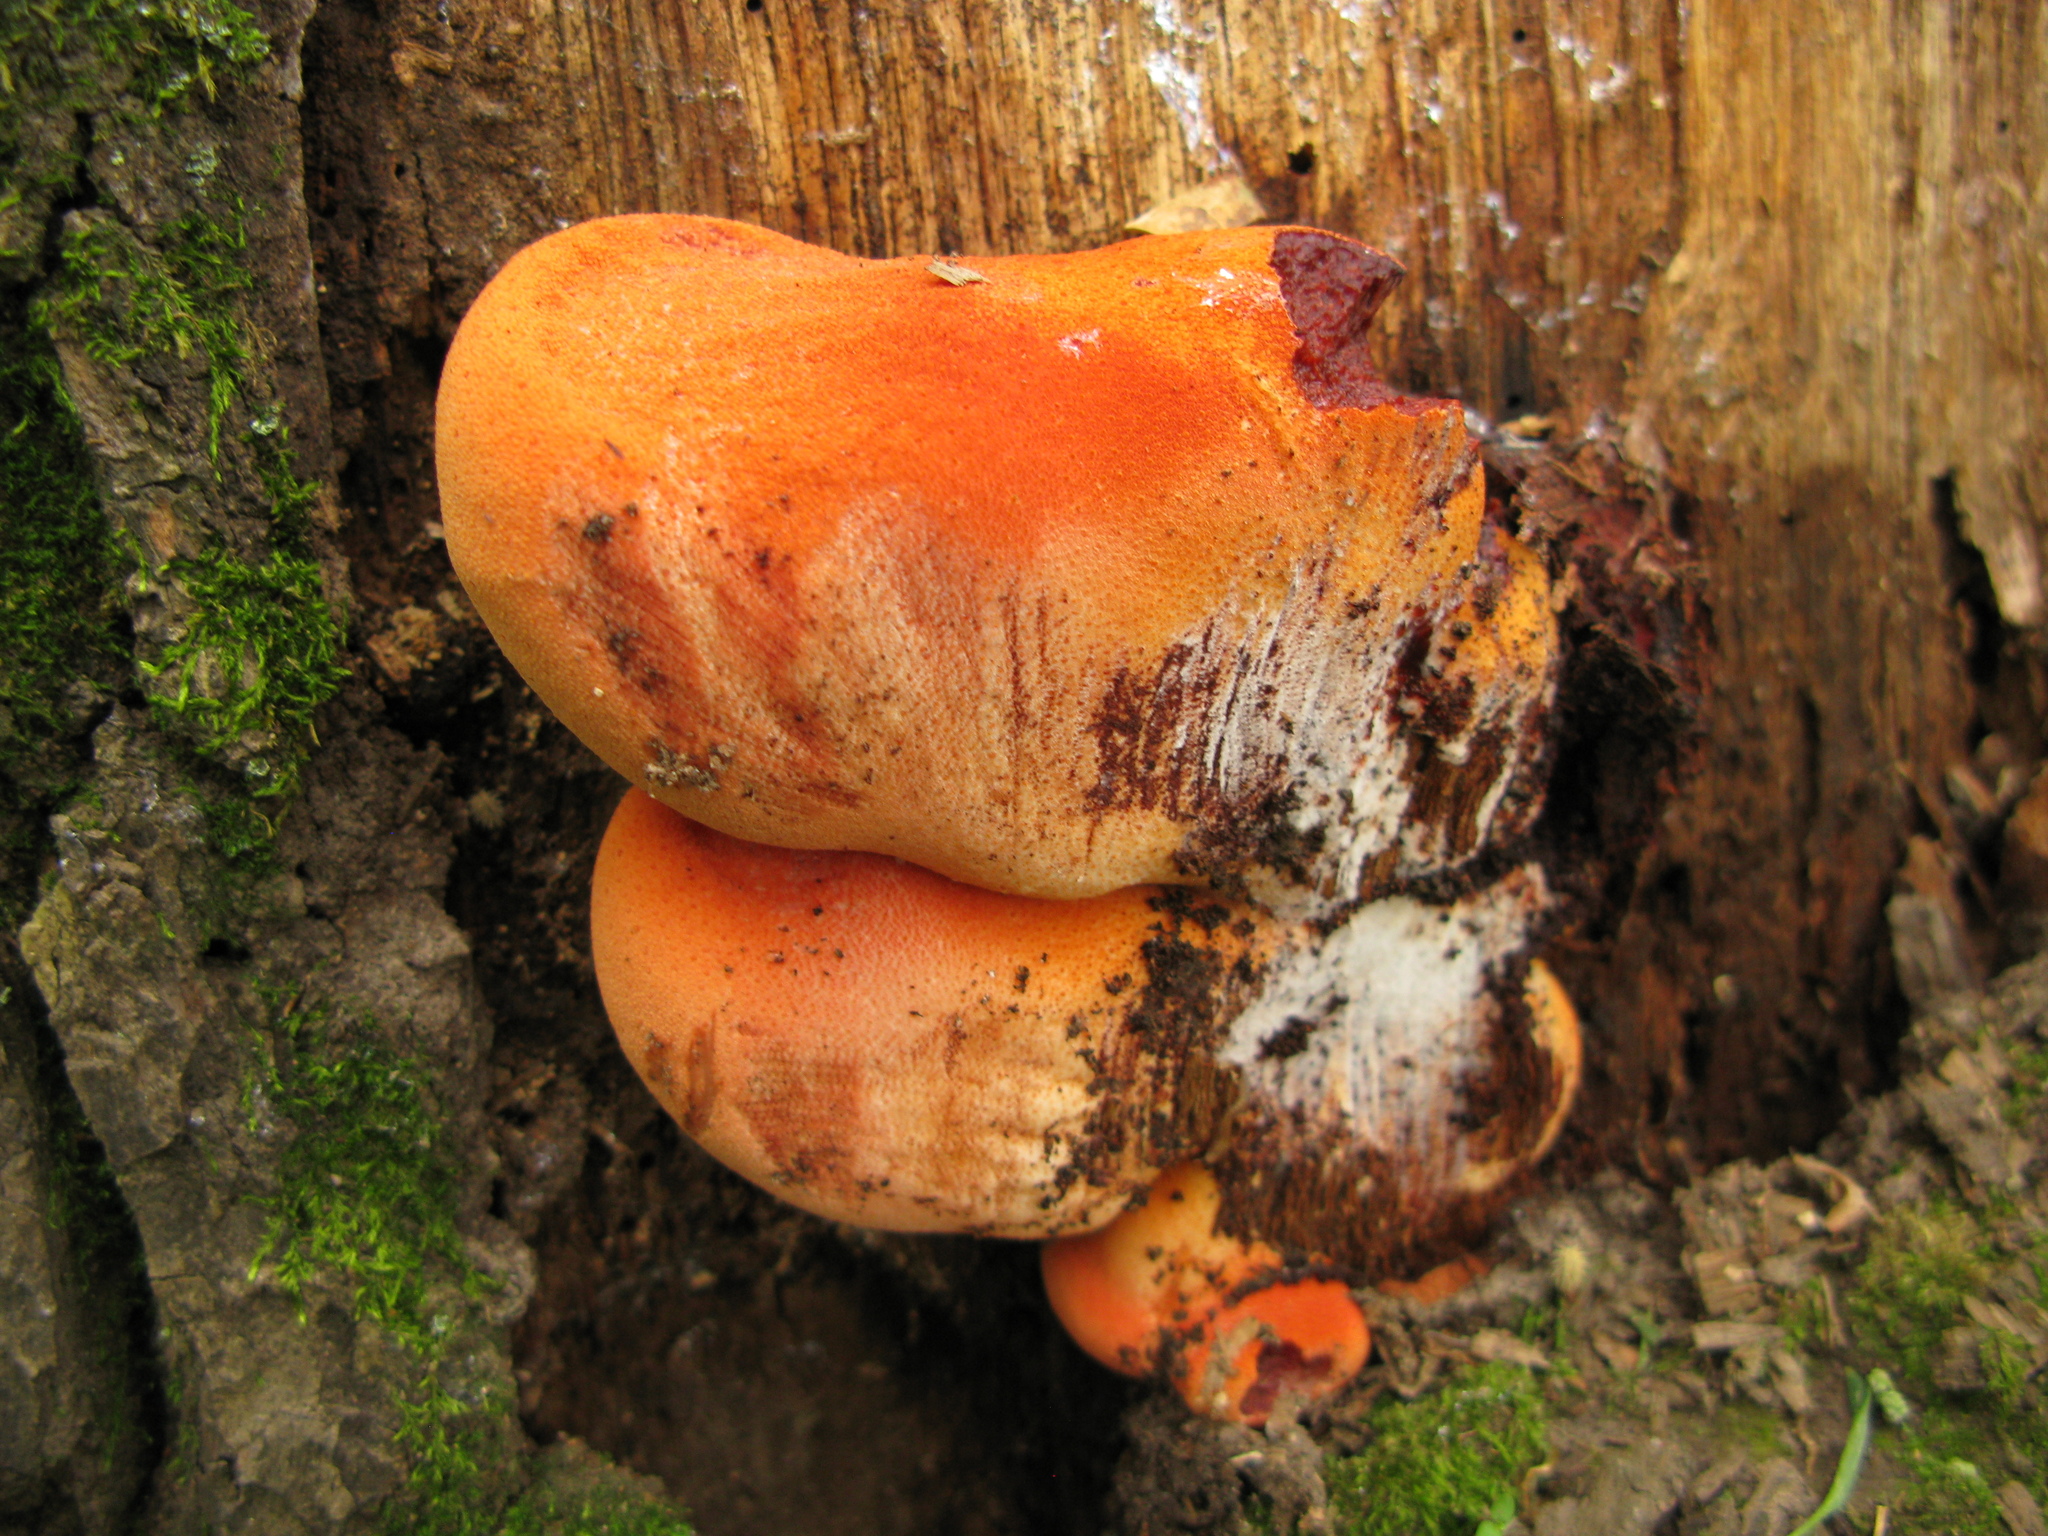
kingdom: Fungi
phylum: Basidiomycota
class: Agaricomycetes
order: Agaricales
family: Fistulinaceae
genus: Fistulina
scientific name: Fistulina hepatica
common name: Beef-steak fungus
